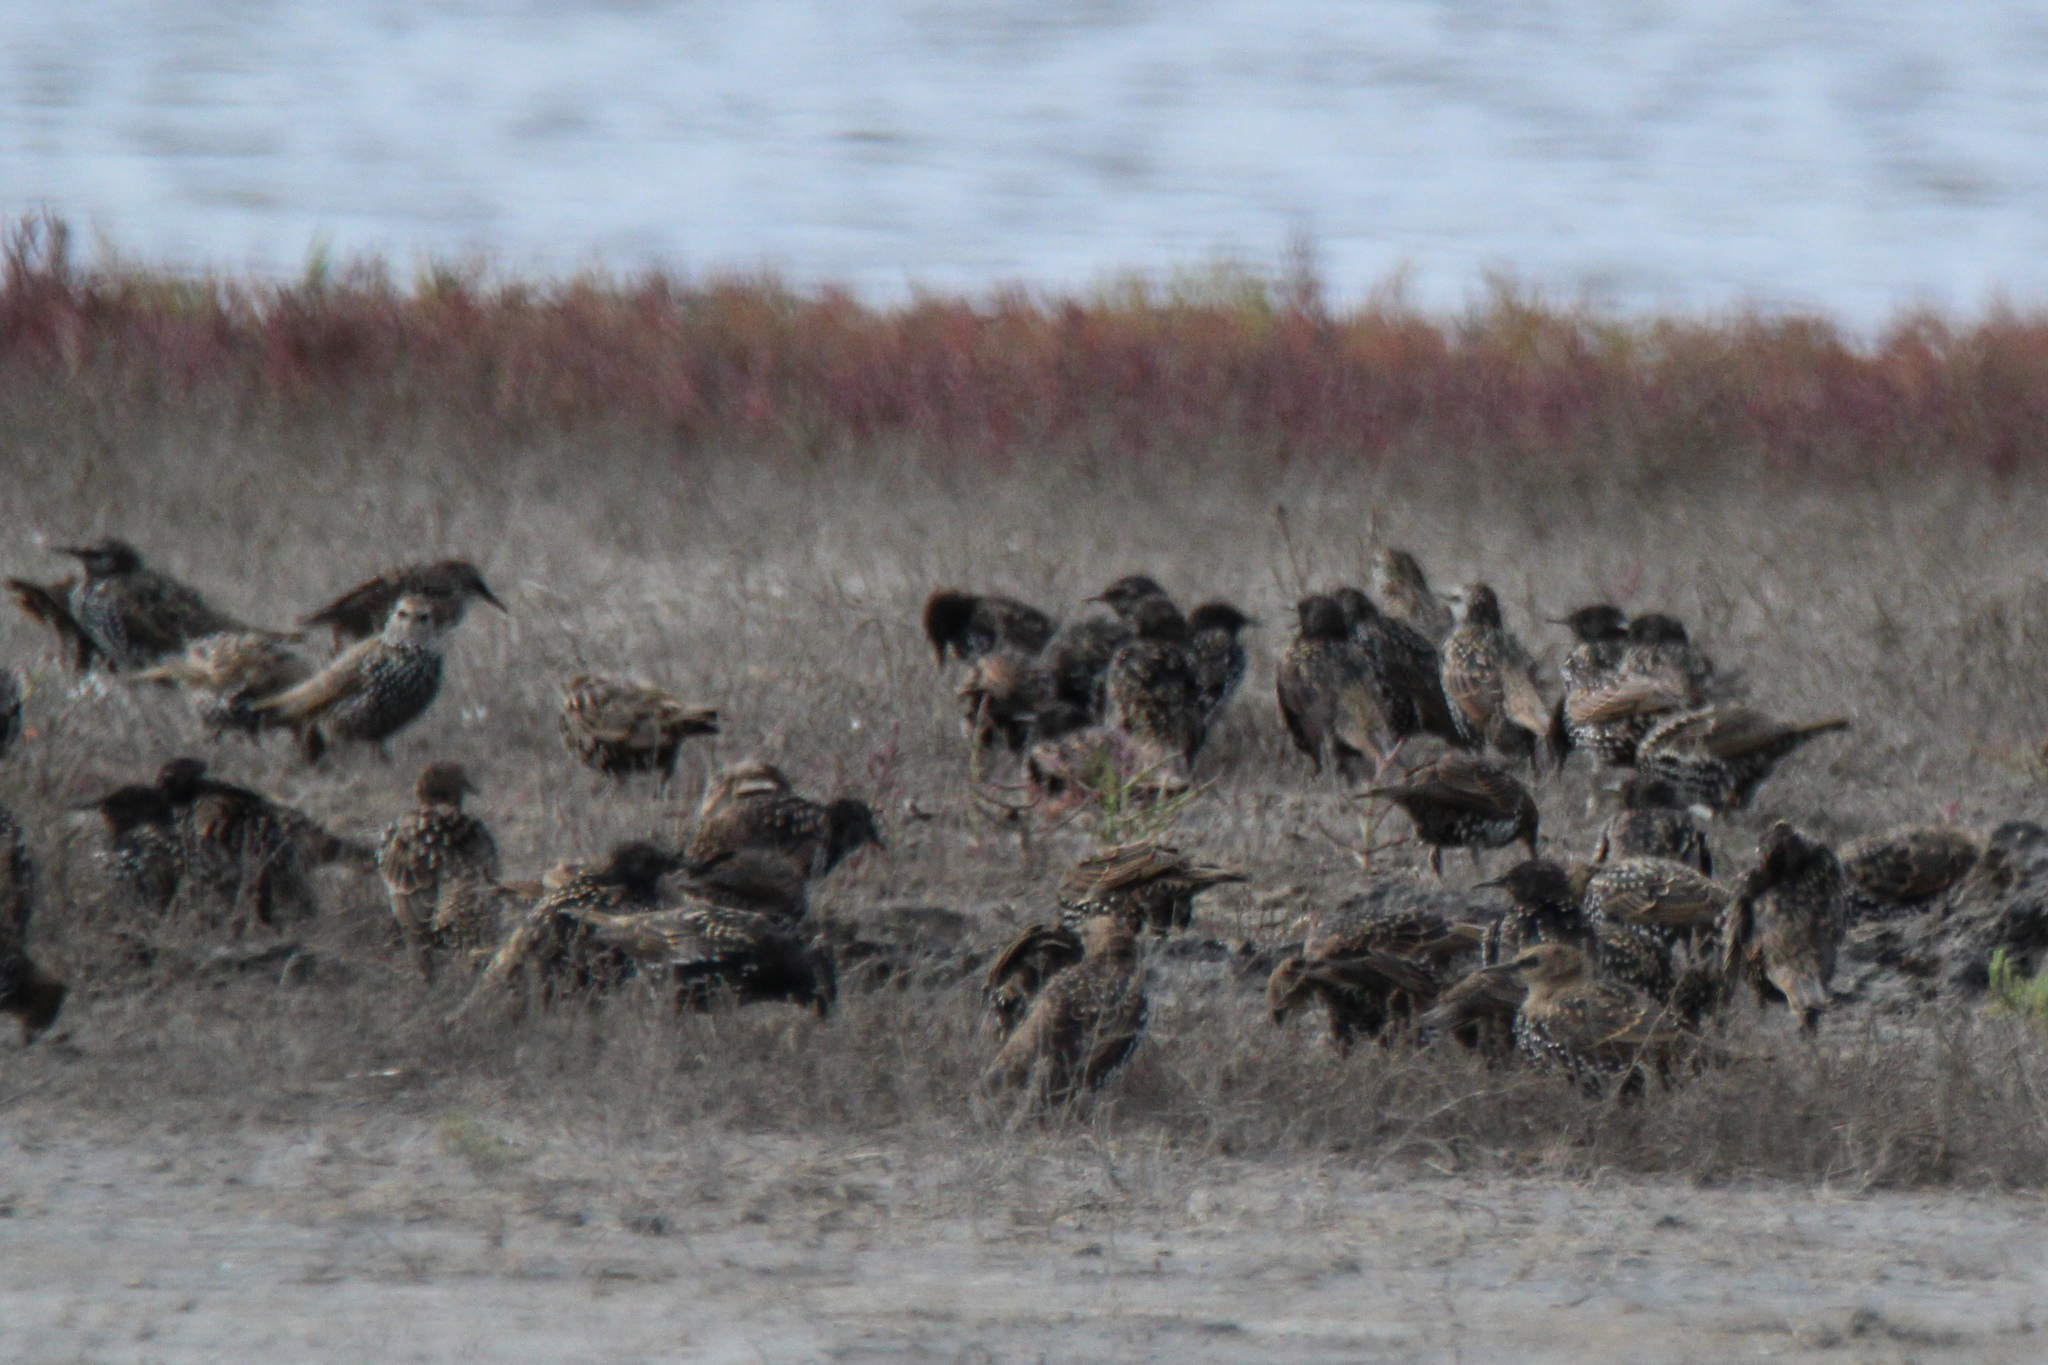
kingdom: Animalia
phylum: Chordata
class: Aves
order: Passeriformes
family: Sturnidae
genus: Sturnus
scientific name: Sturnus vulgaris
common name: Common starling
